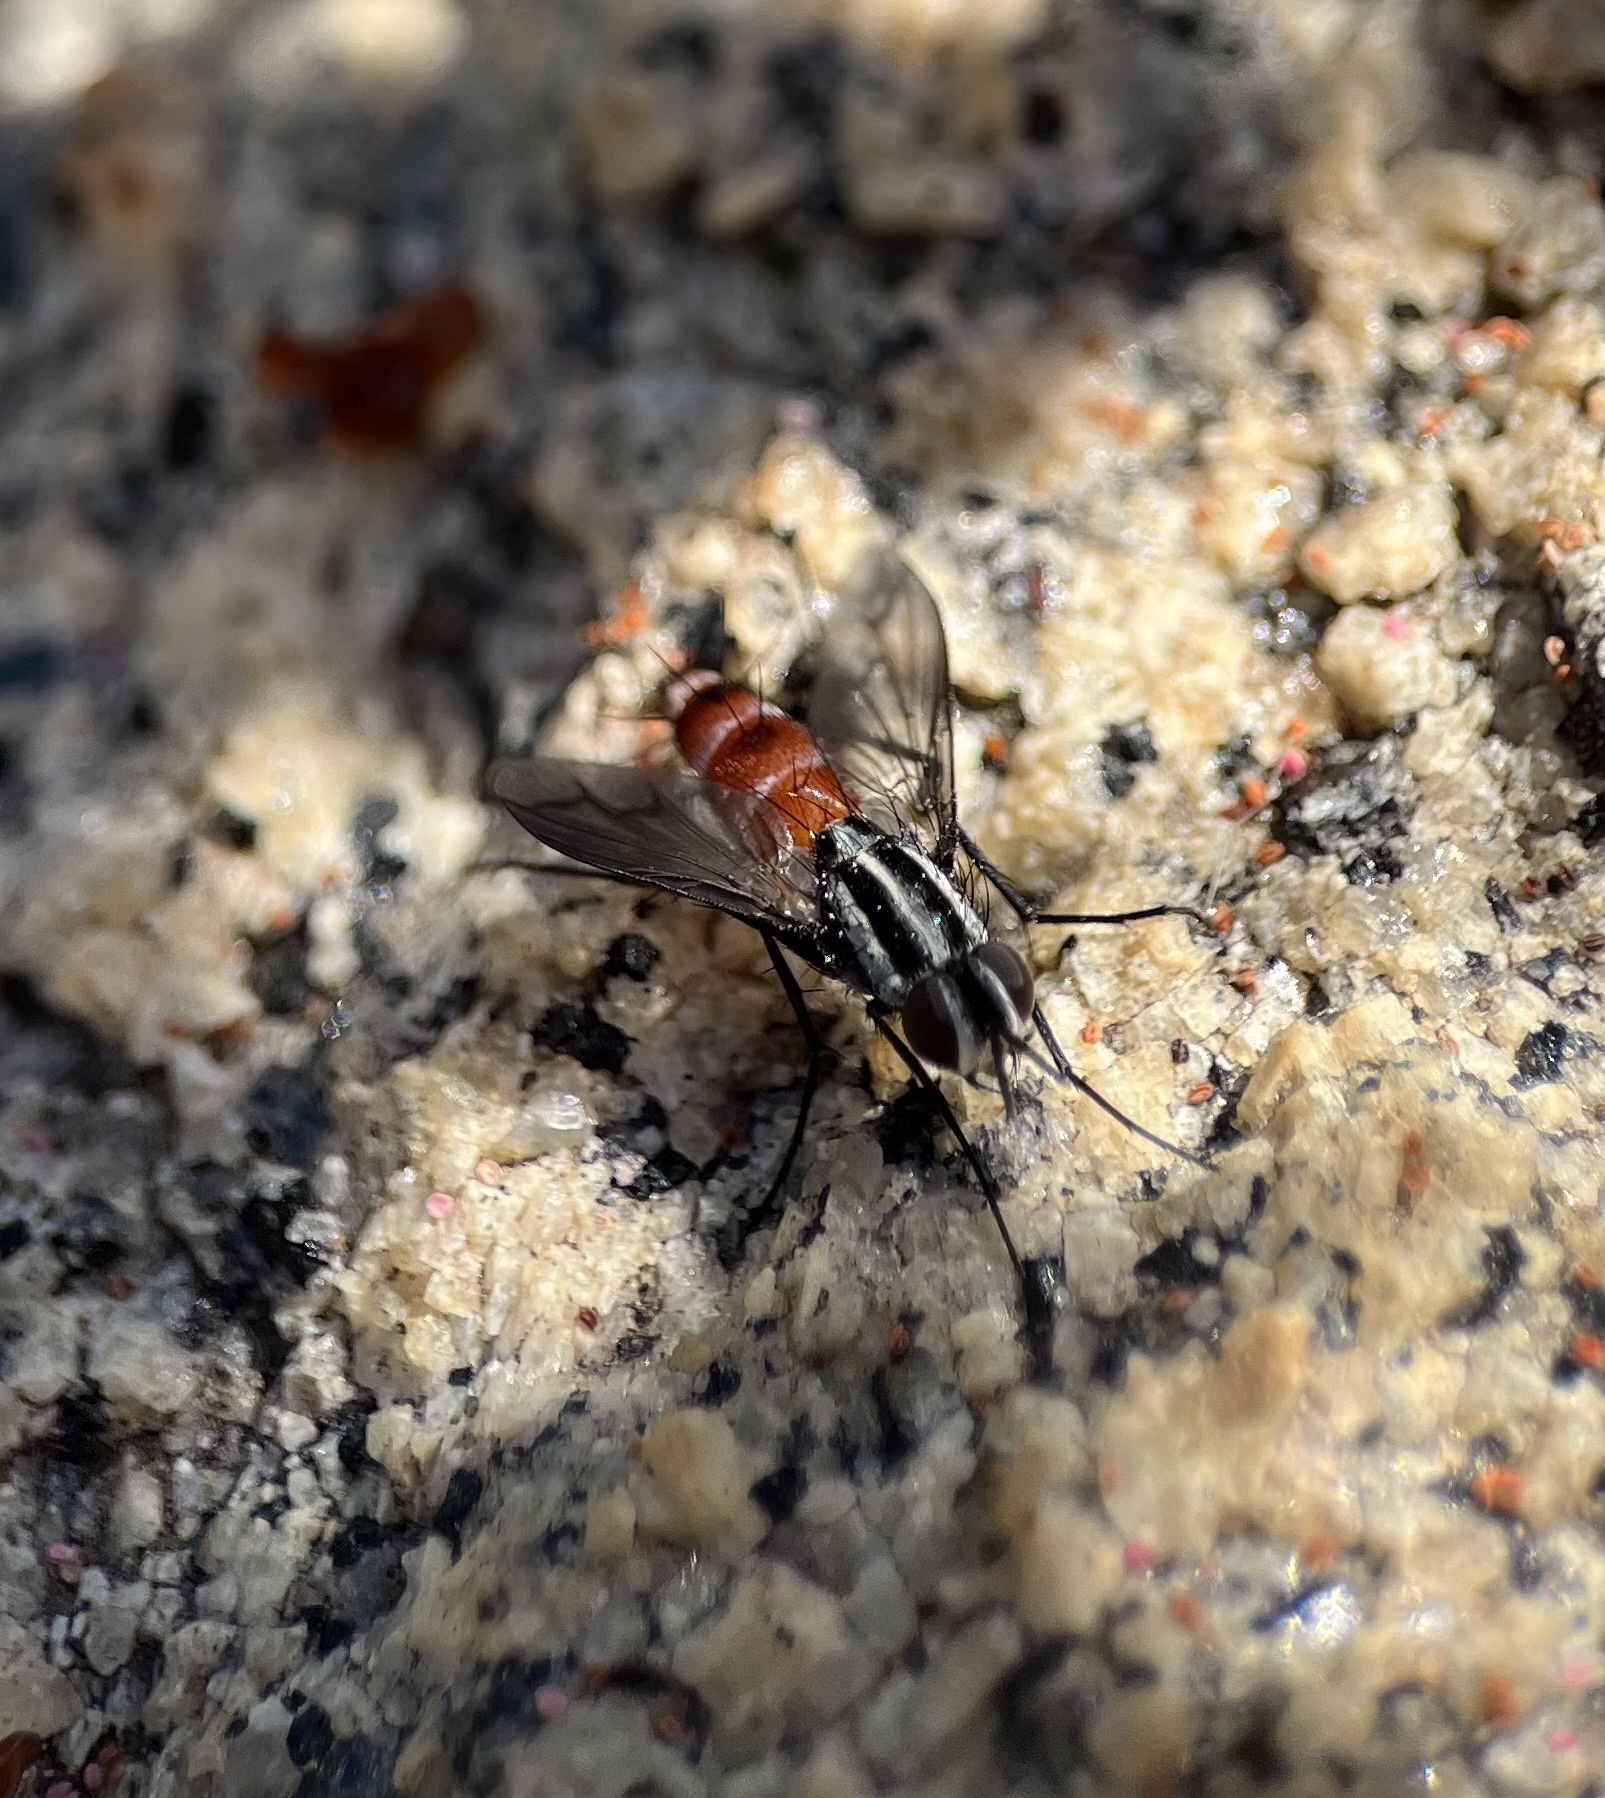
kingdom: Animalia
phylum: Arthropoda
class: Insecta
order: Diptera
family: Tachinidae
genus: Vanderwulpia
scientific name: Vanderwulpia atrophopodoides
